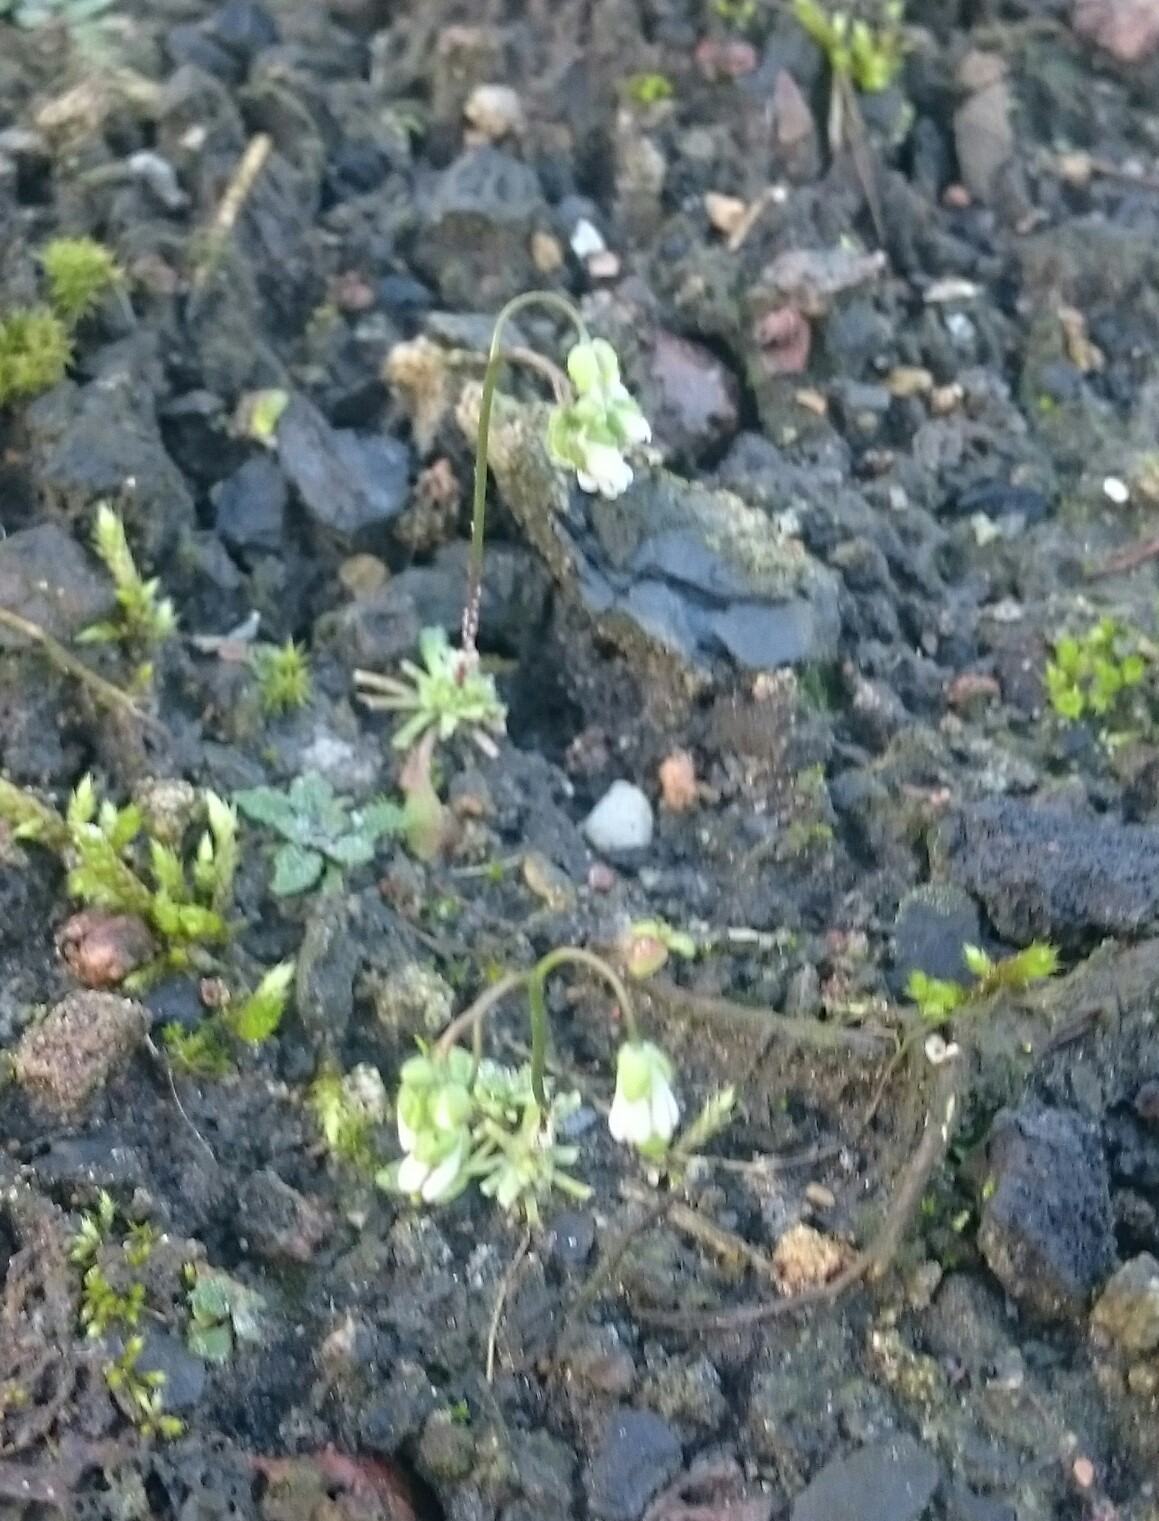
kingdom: Plantae
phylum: Tracheophyta
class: Magnoliopsida
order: Brassicales
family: Brassicaceae
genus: Draba
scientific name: Draba verna
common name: Spring draba
